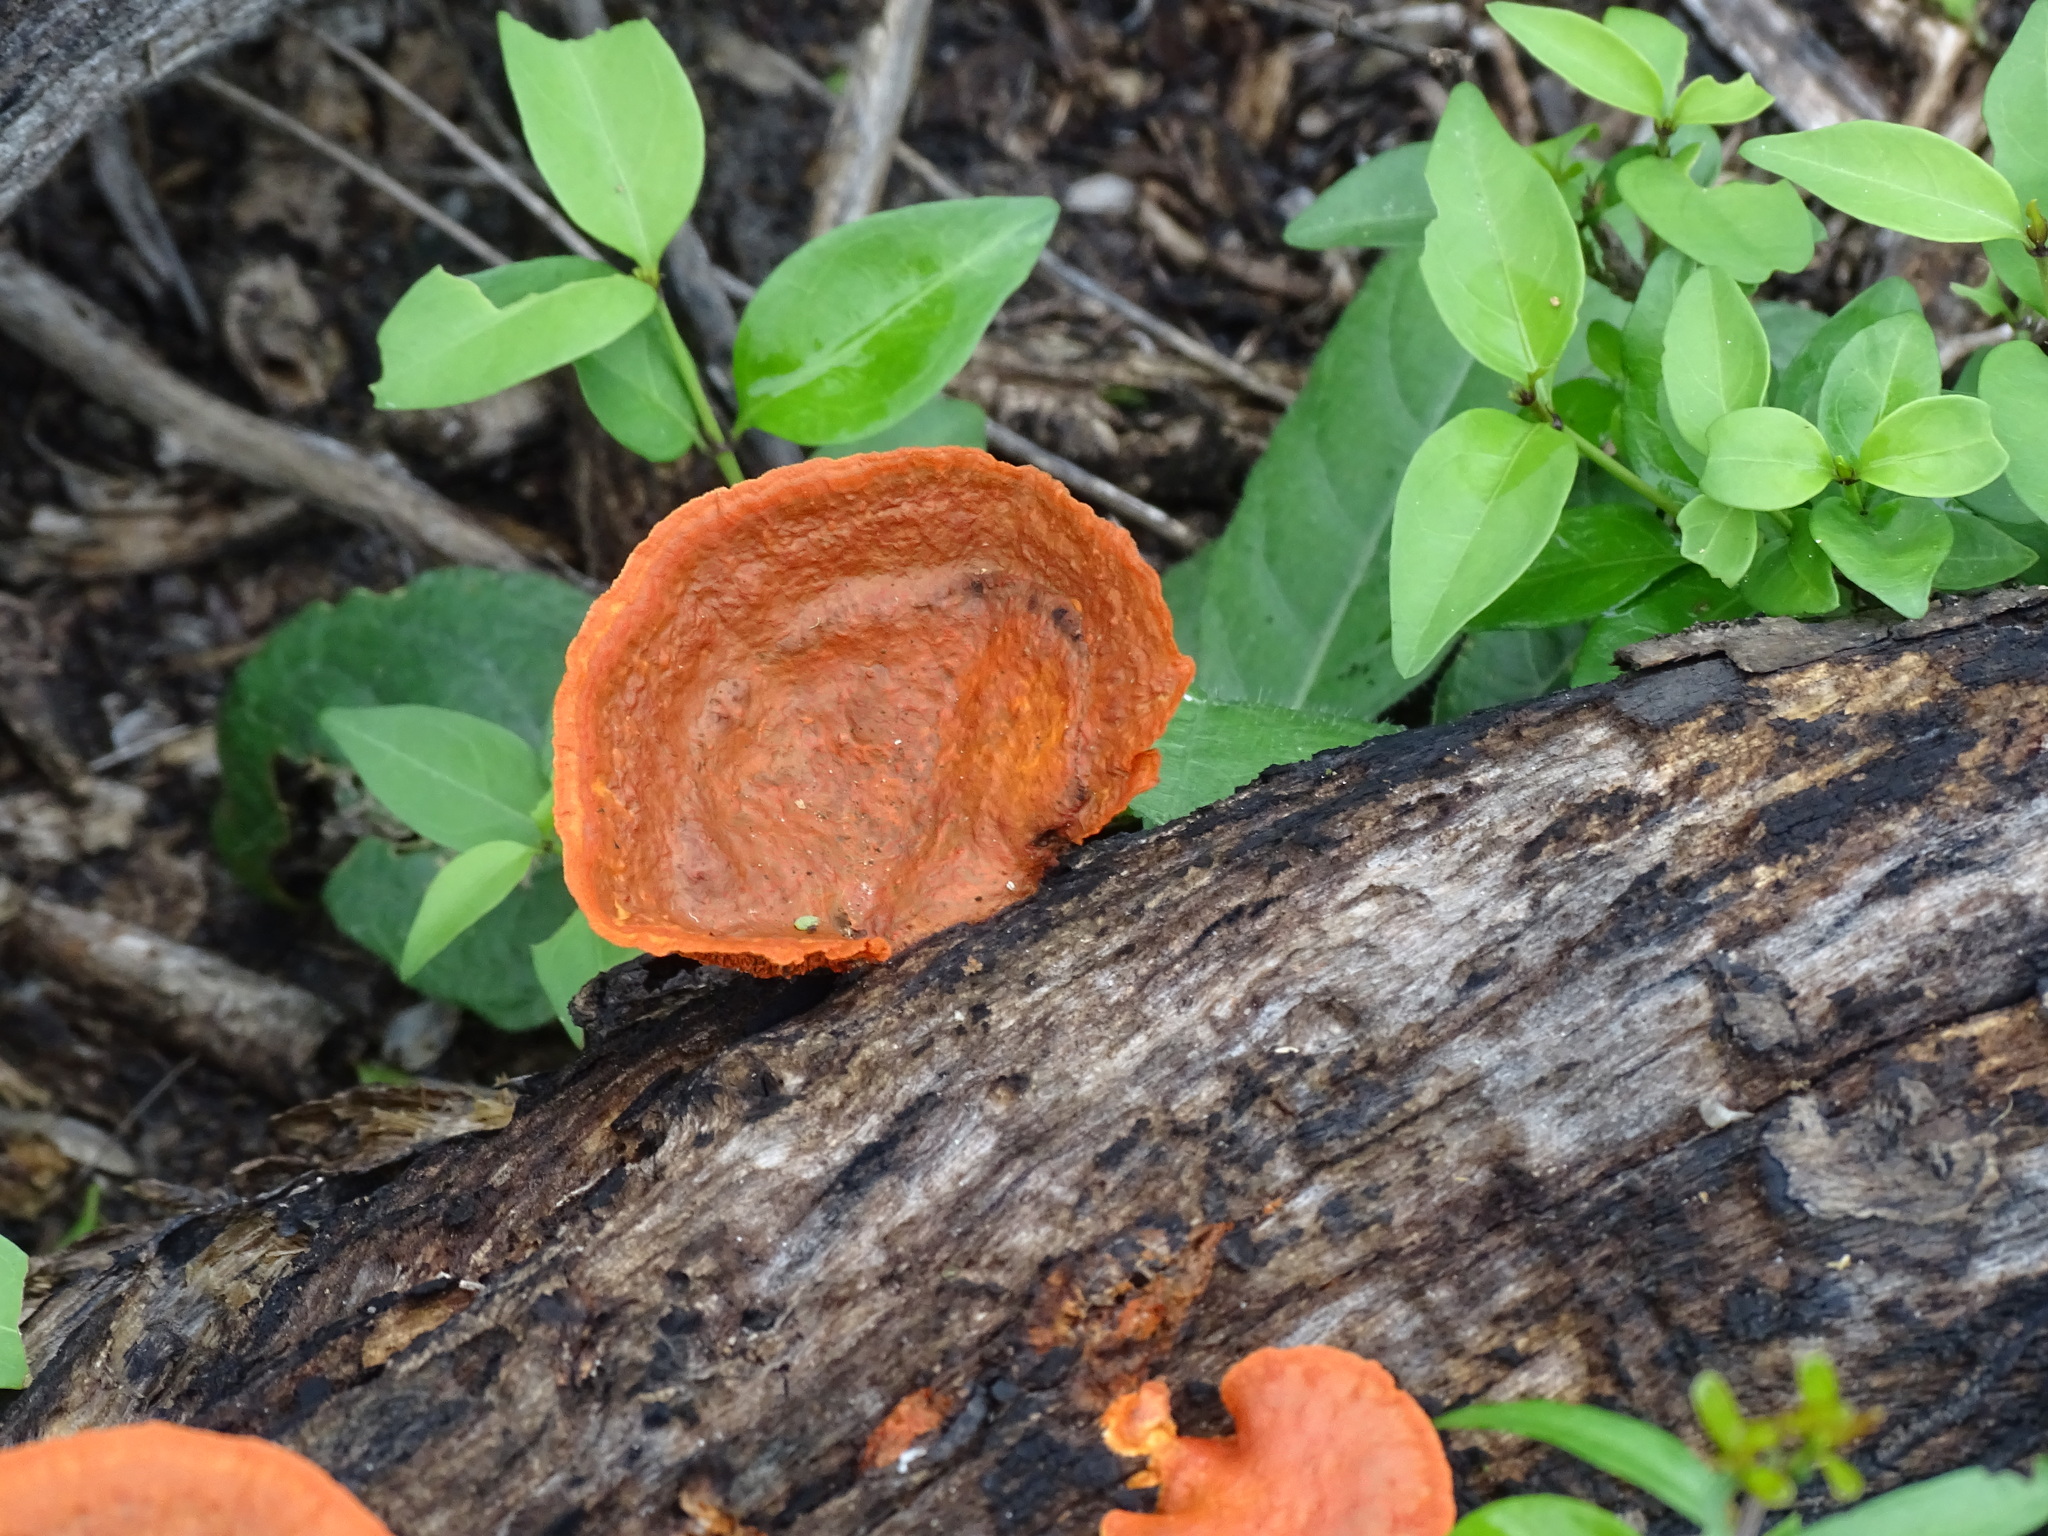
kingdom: Fungi
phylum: Basidiomycota
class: Agaricomycetes
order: Polyporales
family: Polyporaceae
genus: Trametes
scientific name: Trametes cinnabarina
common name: Northern cinnabar polypore
